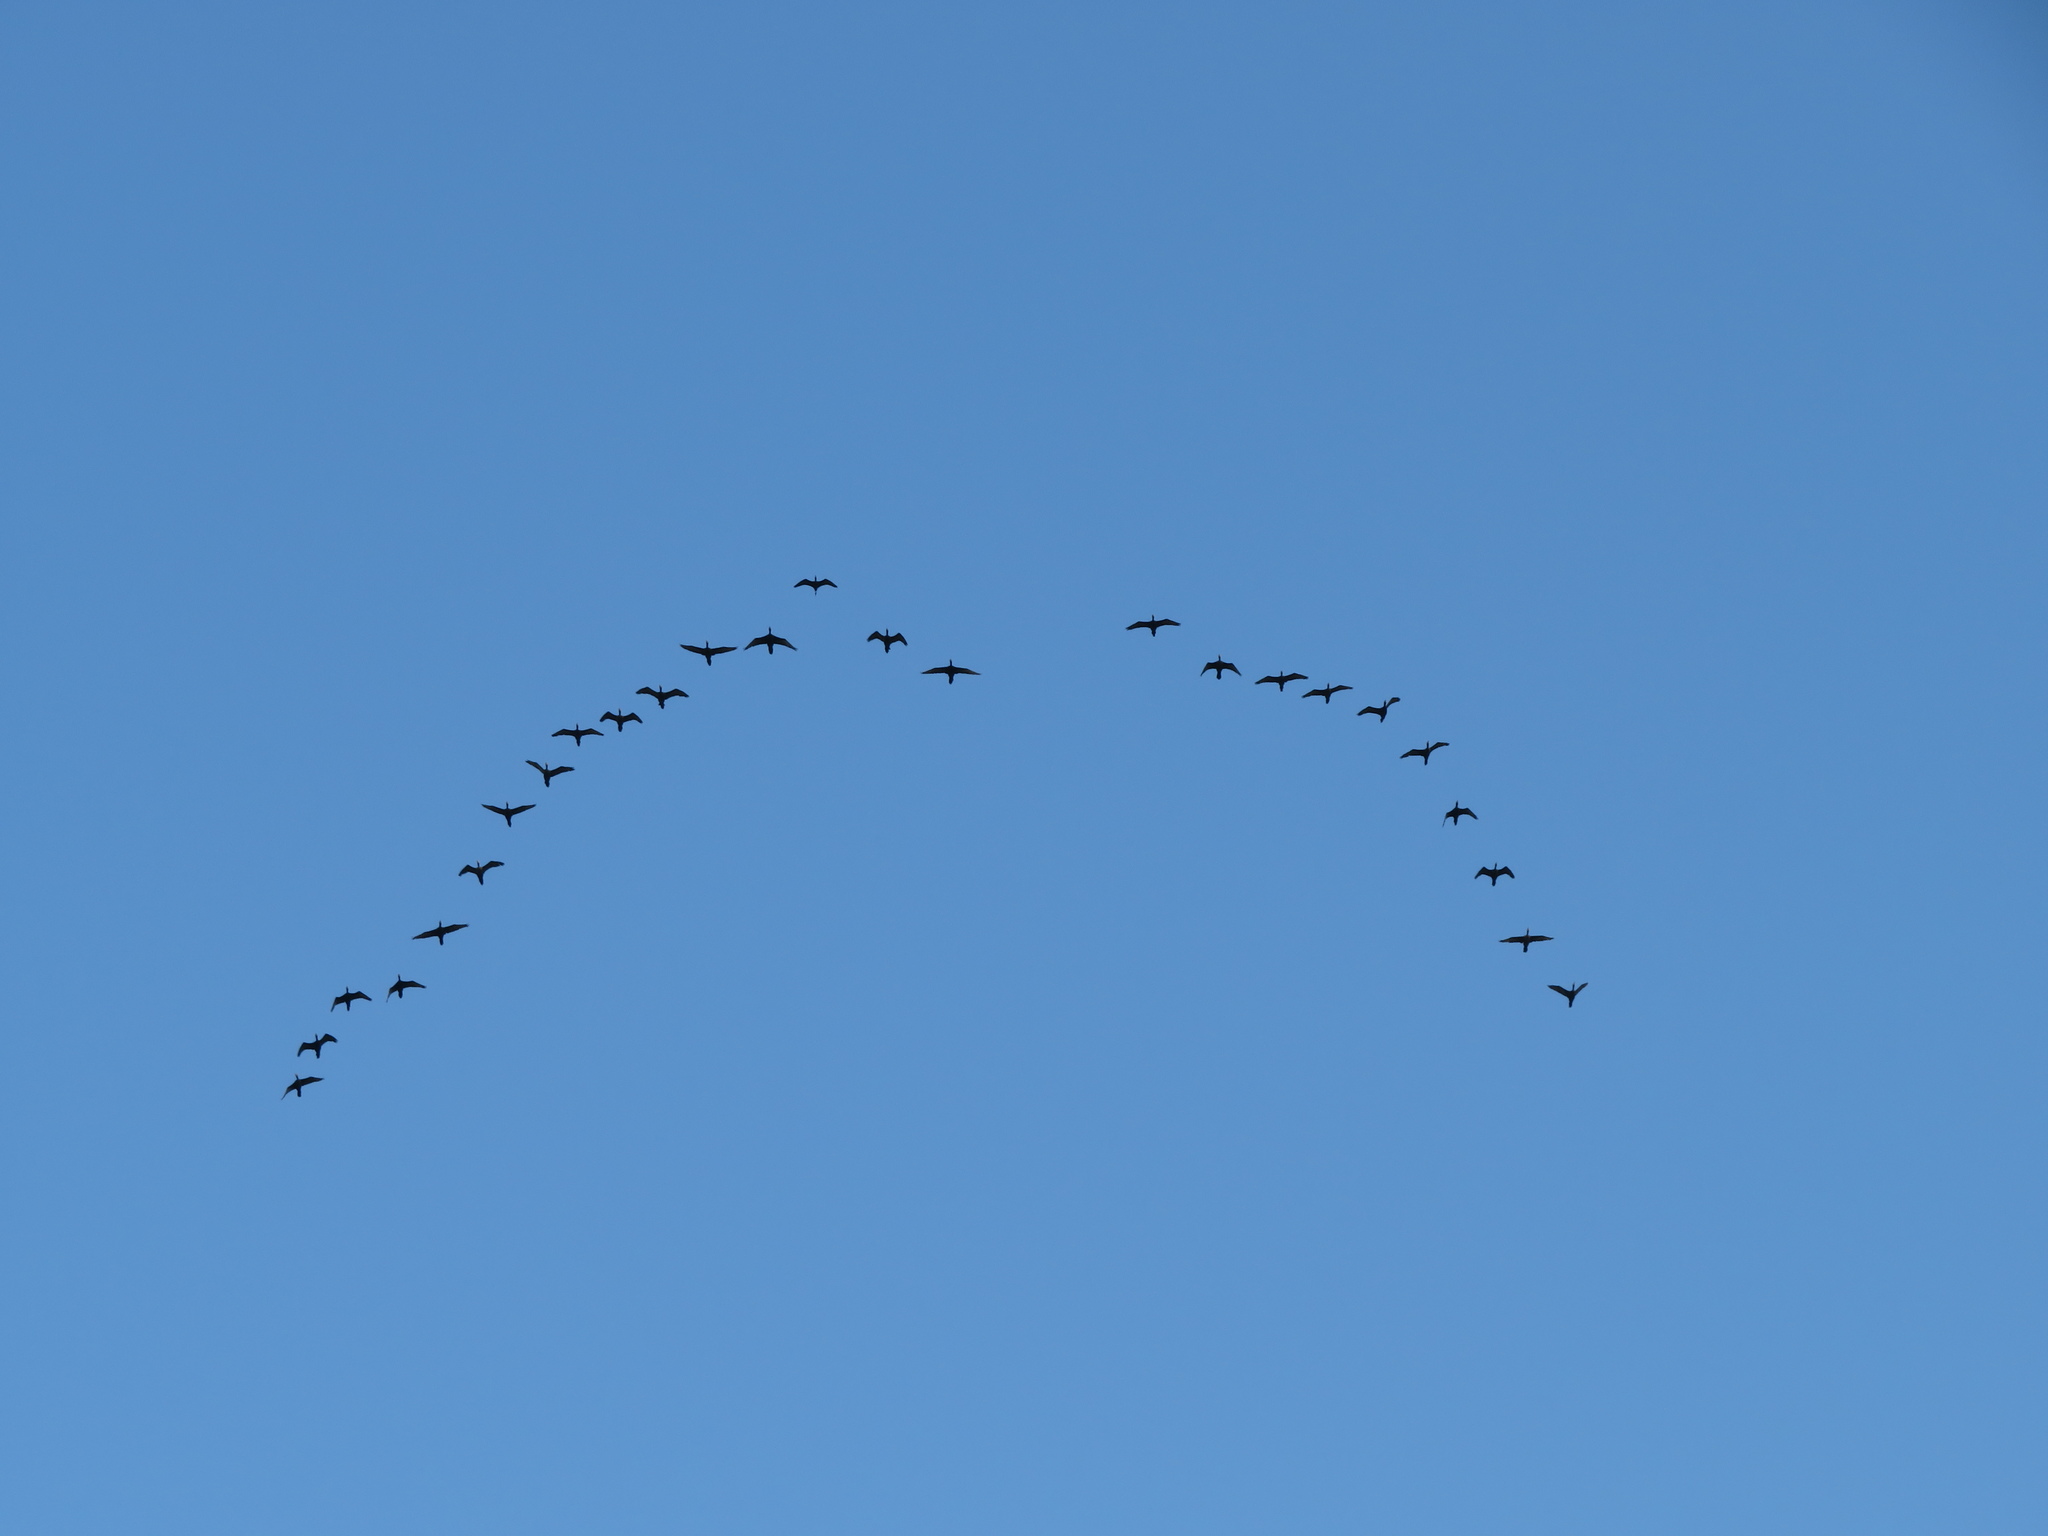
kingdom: Animalia
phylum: Chordata
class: Aves
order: Pelecaniformes
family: Threskiornithidae
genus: Phimosus
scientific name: Phimosus infuscatus
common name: Bare-faced ibis
